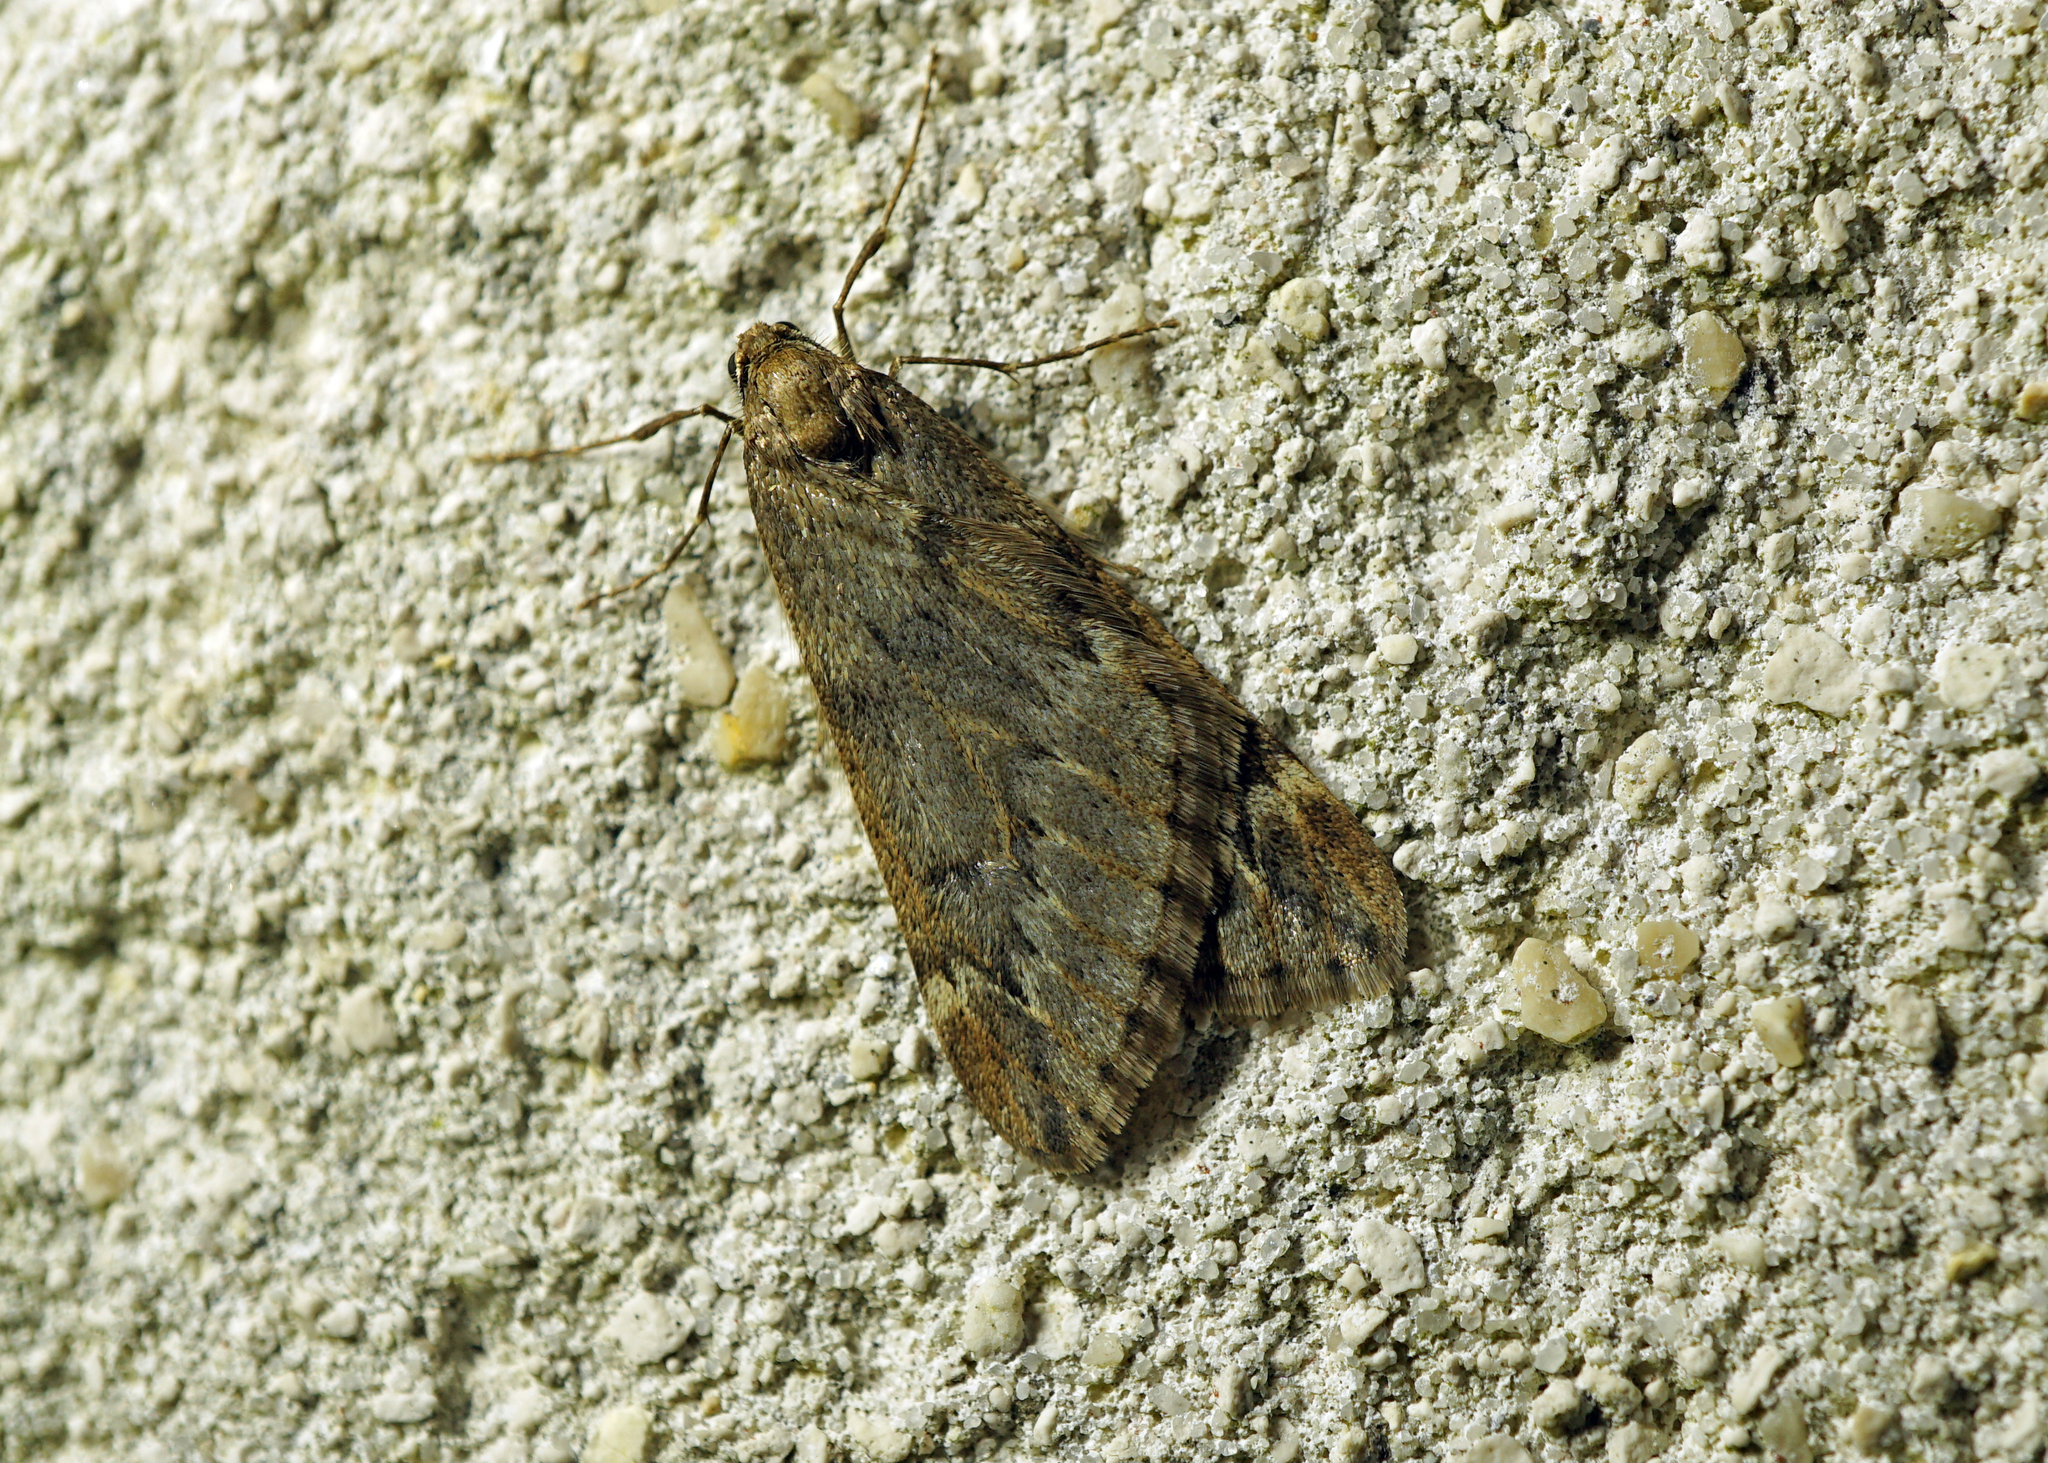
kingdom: Animalia
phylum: Arthropoda
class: Insecta
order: Lepidoptera
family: Geometridae
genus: Alsophila
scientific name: Alsophila aescularia
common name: March moth
